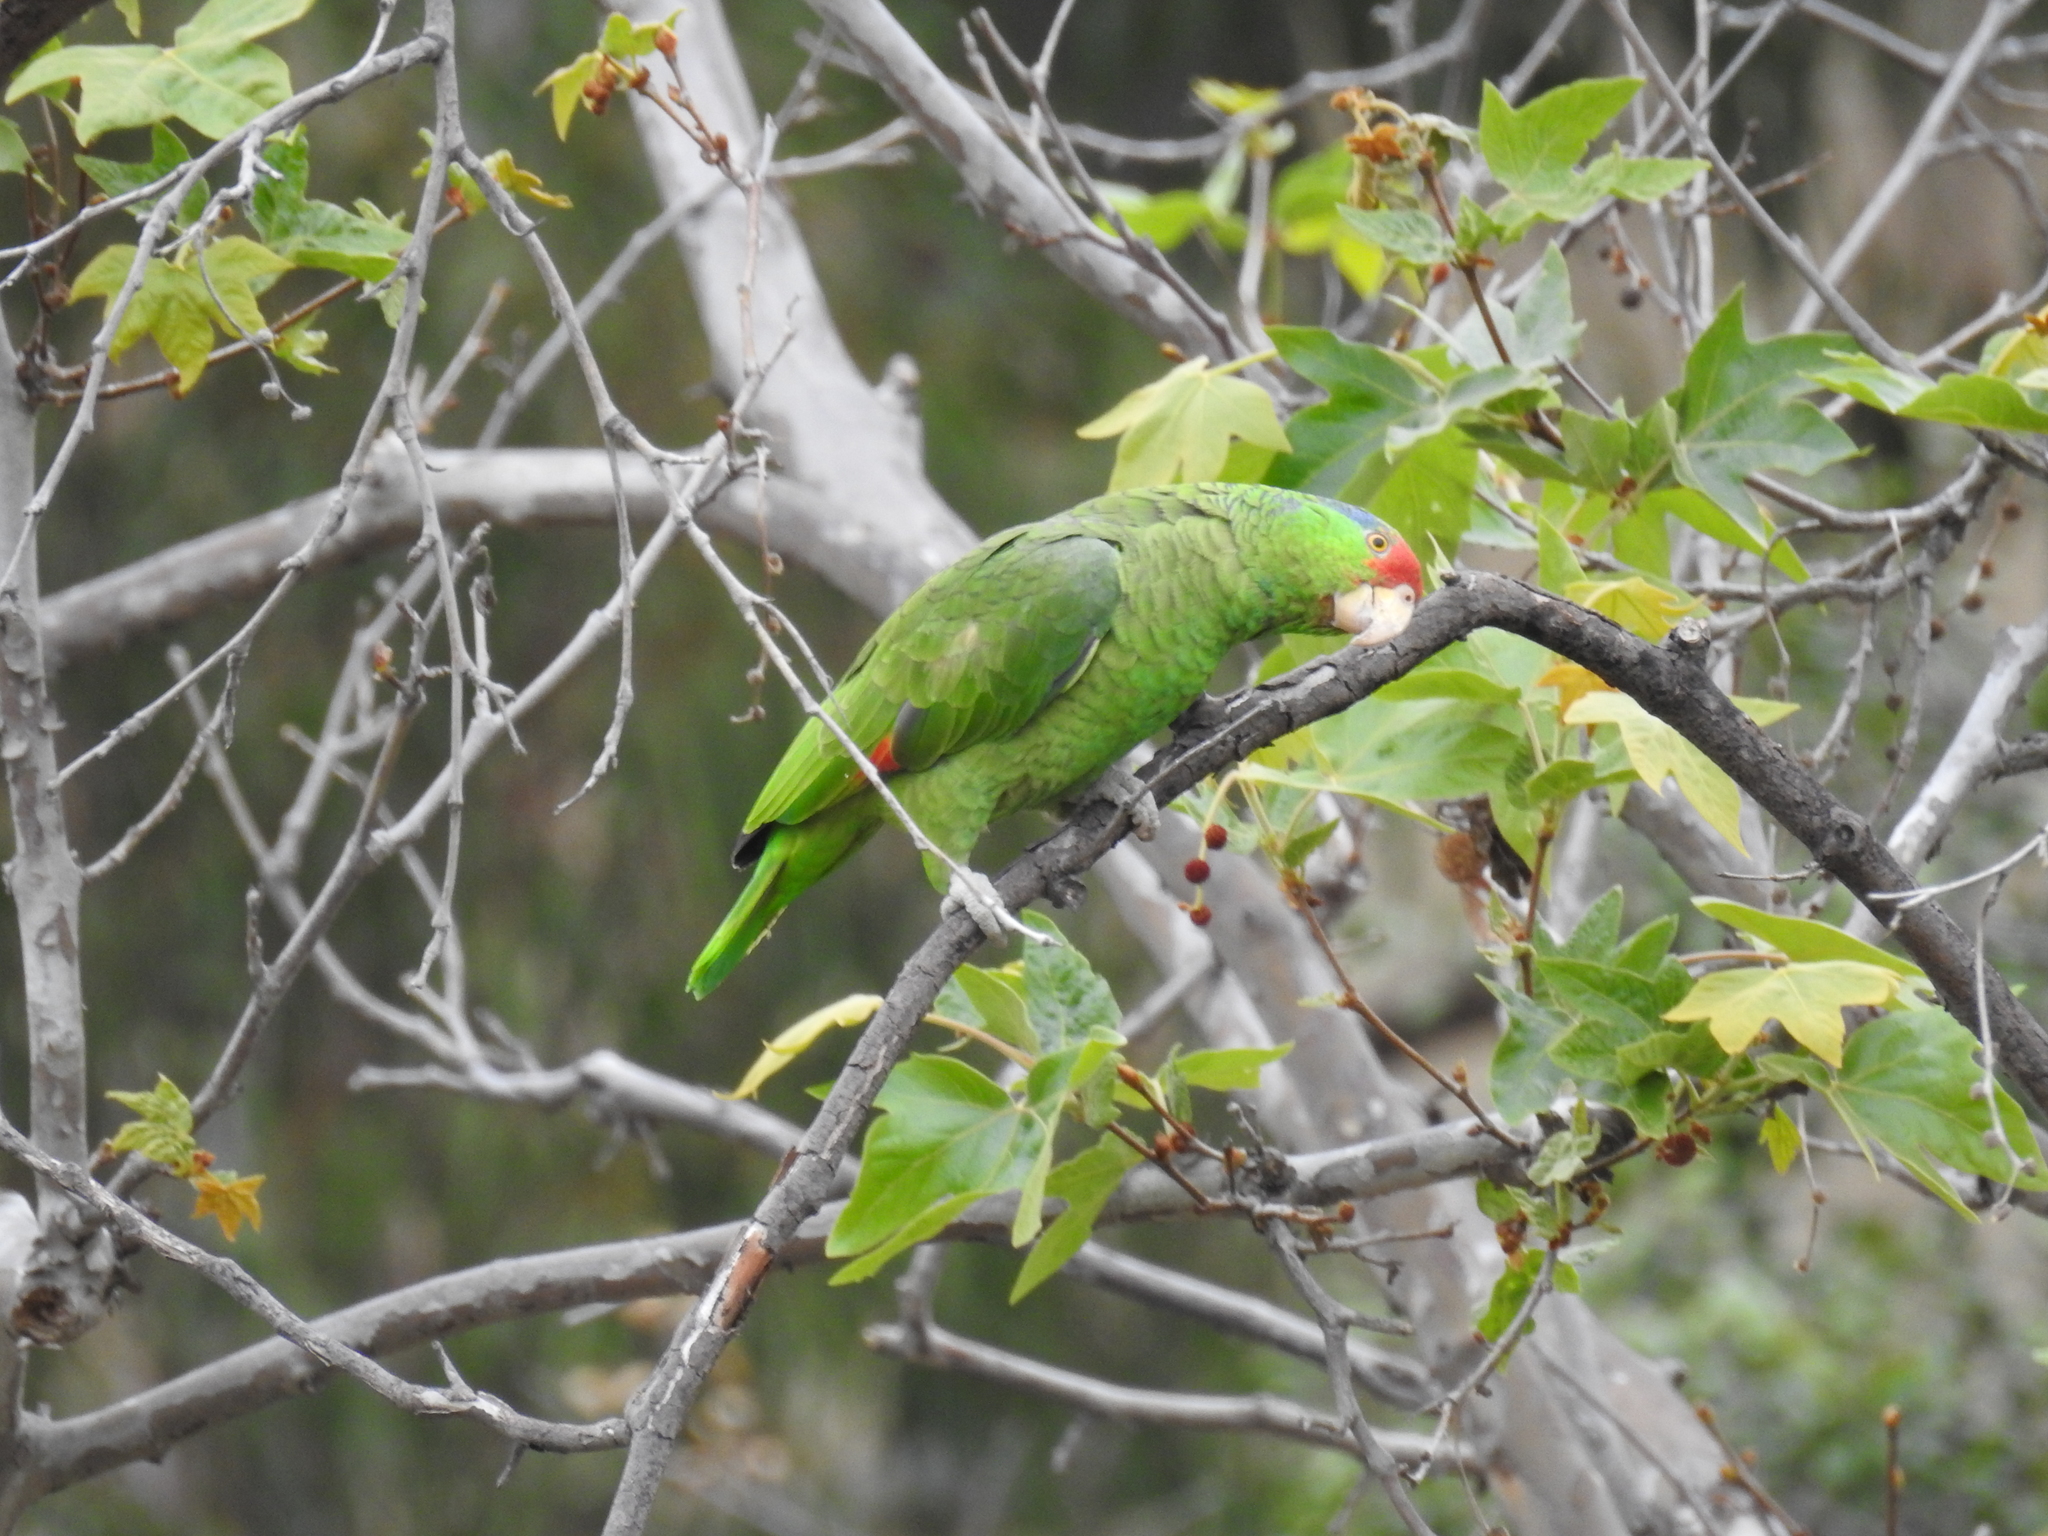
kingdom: Animalia
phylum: Chordata
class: Aves
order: Psittaciformes
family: Psittacidae
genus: Amazona
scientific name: Amazona viridigenalis
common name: Red-crowned amazon
